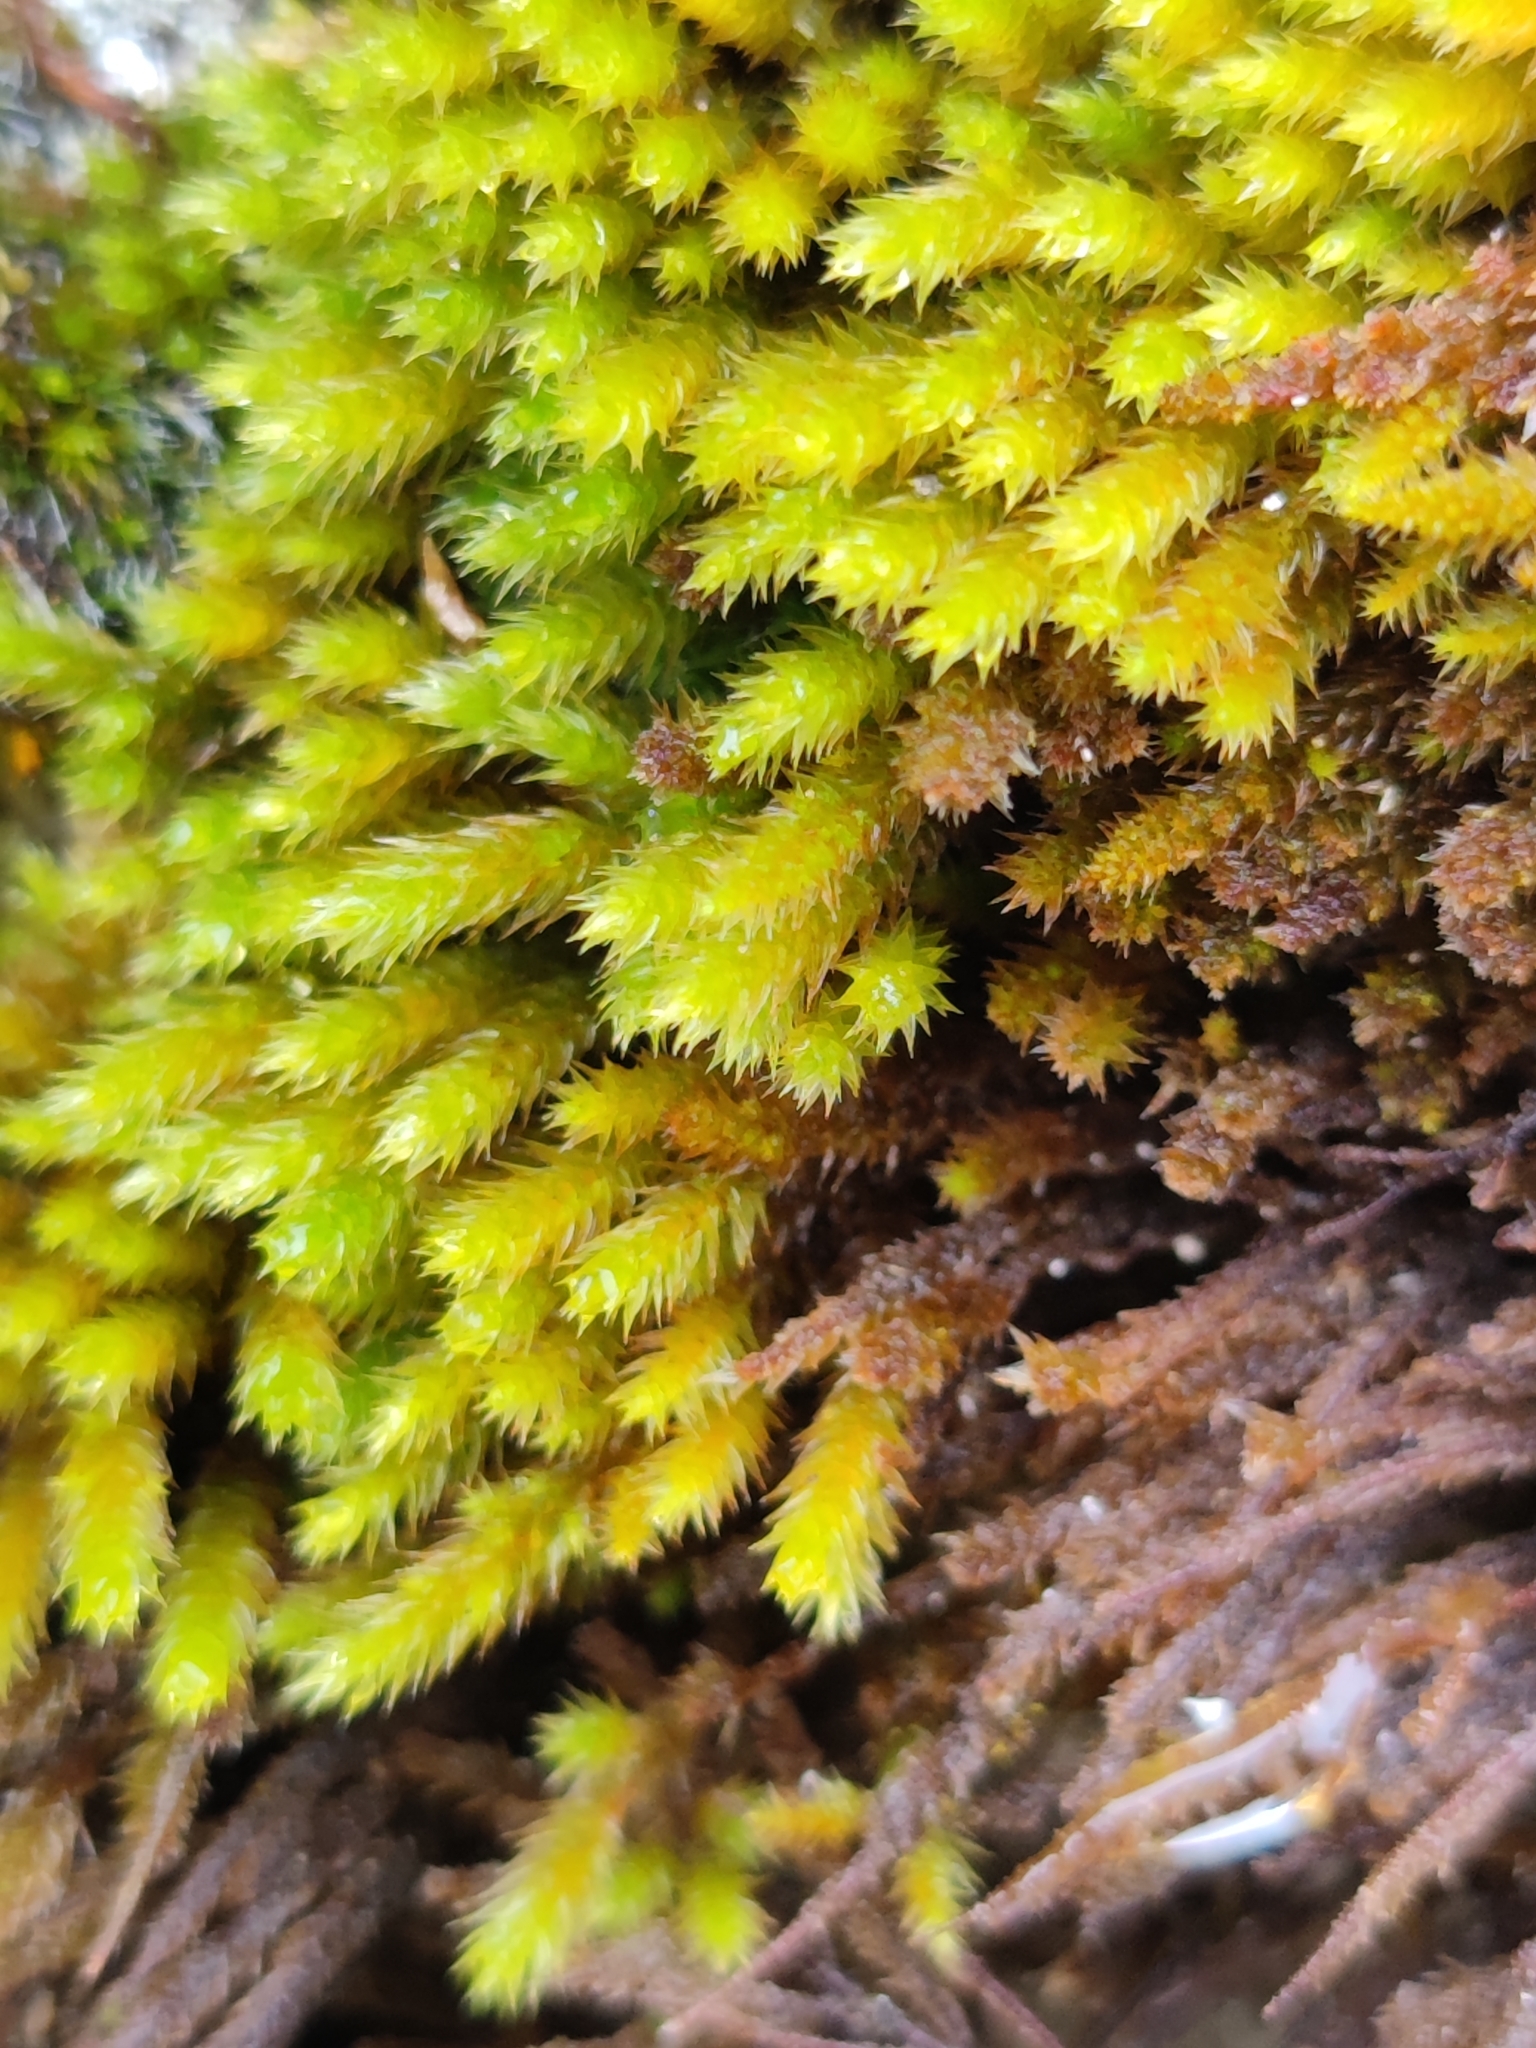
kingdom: Plantae
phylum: Bryophyta
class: Bryopsida
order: Hypnales
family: Leucodontaceae
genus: Leucodon
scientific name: Leucodon sciuroides
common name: Squirrel-tail moss
